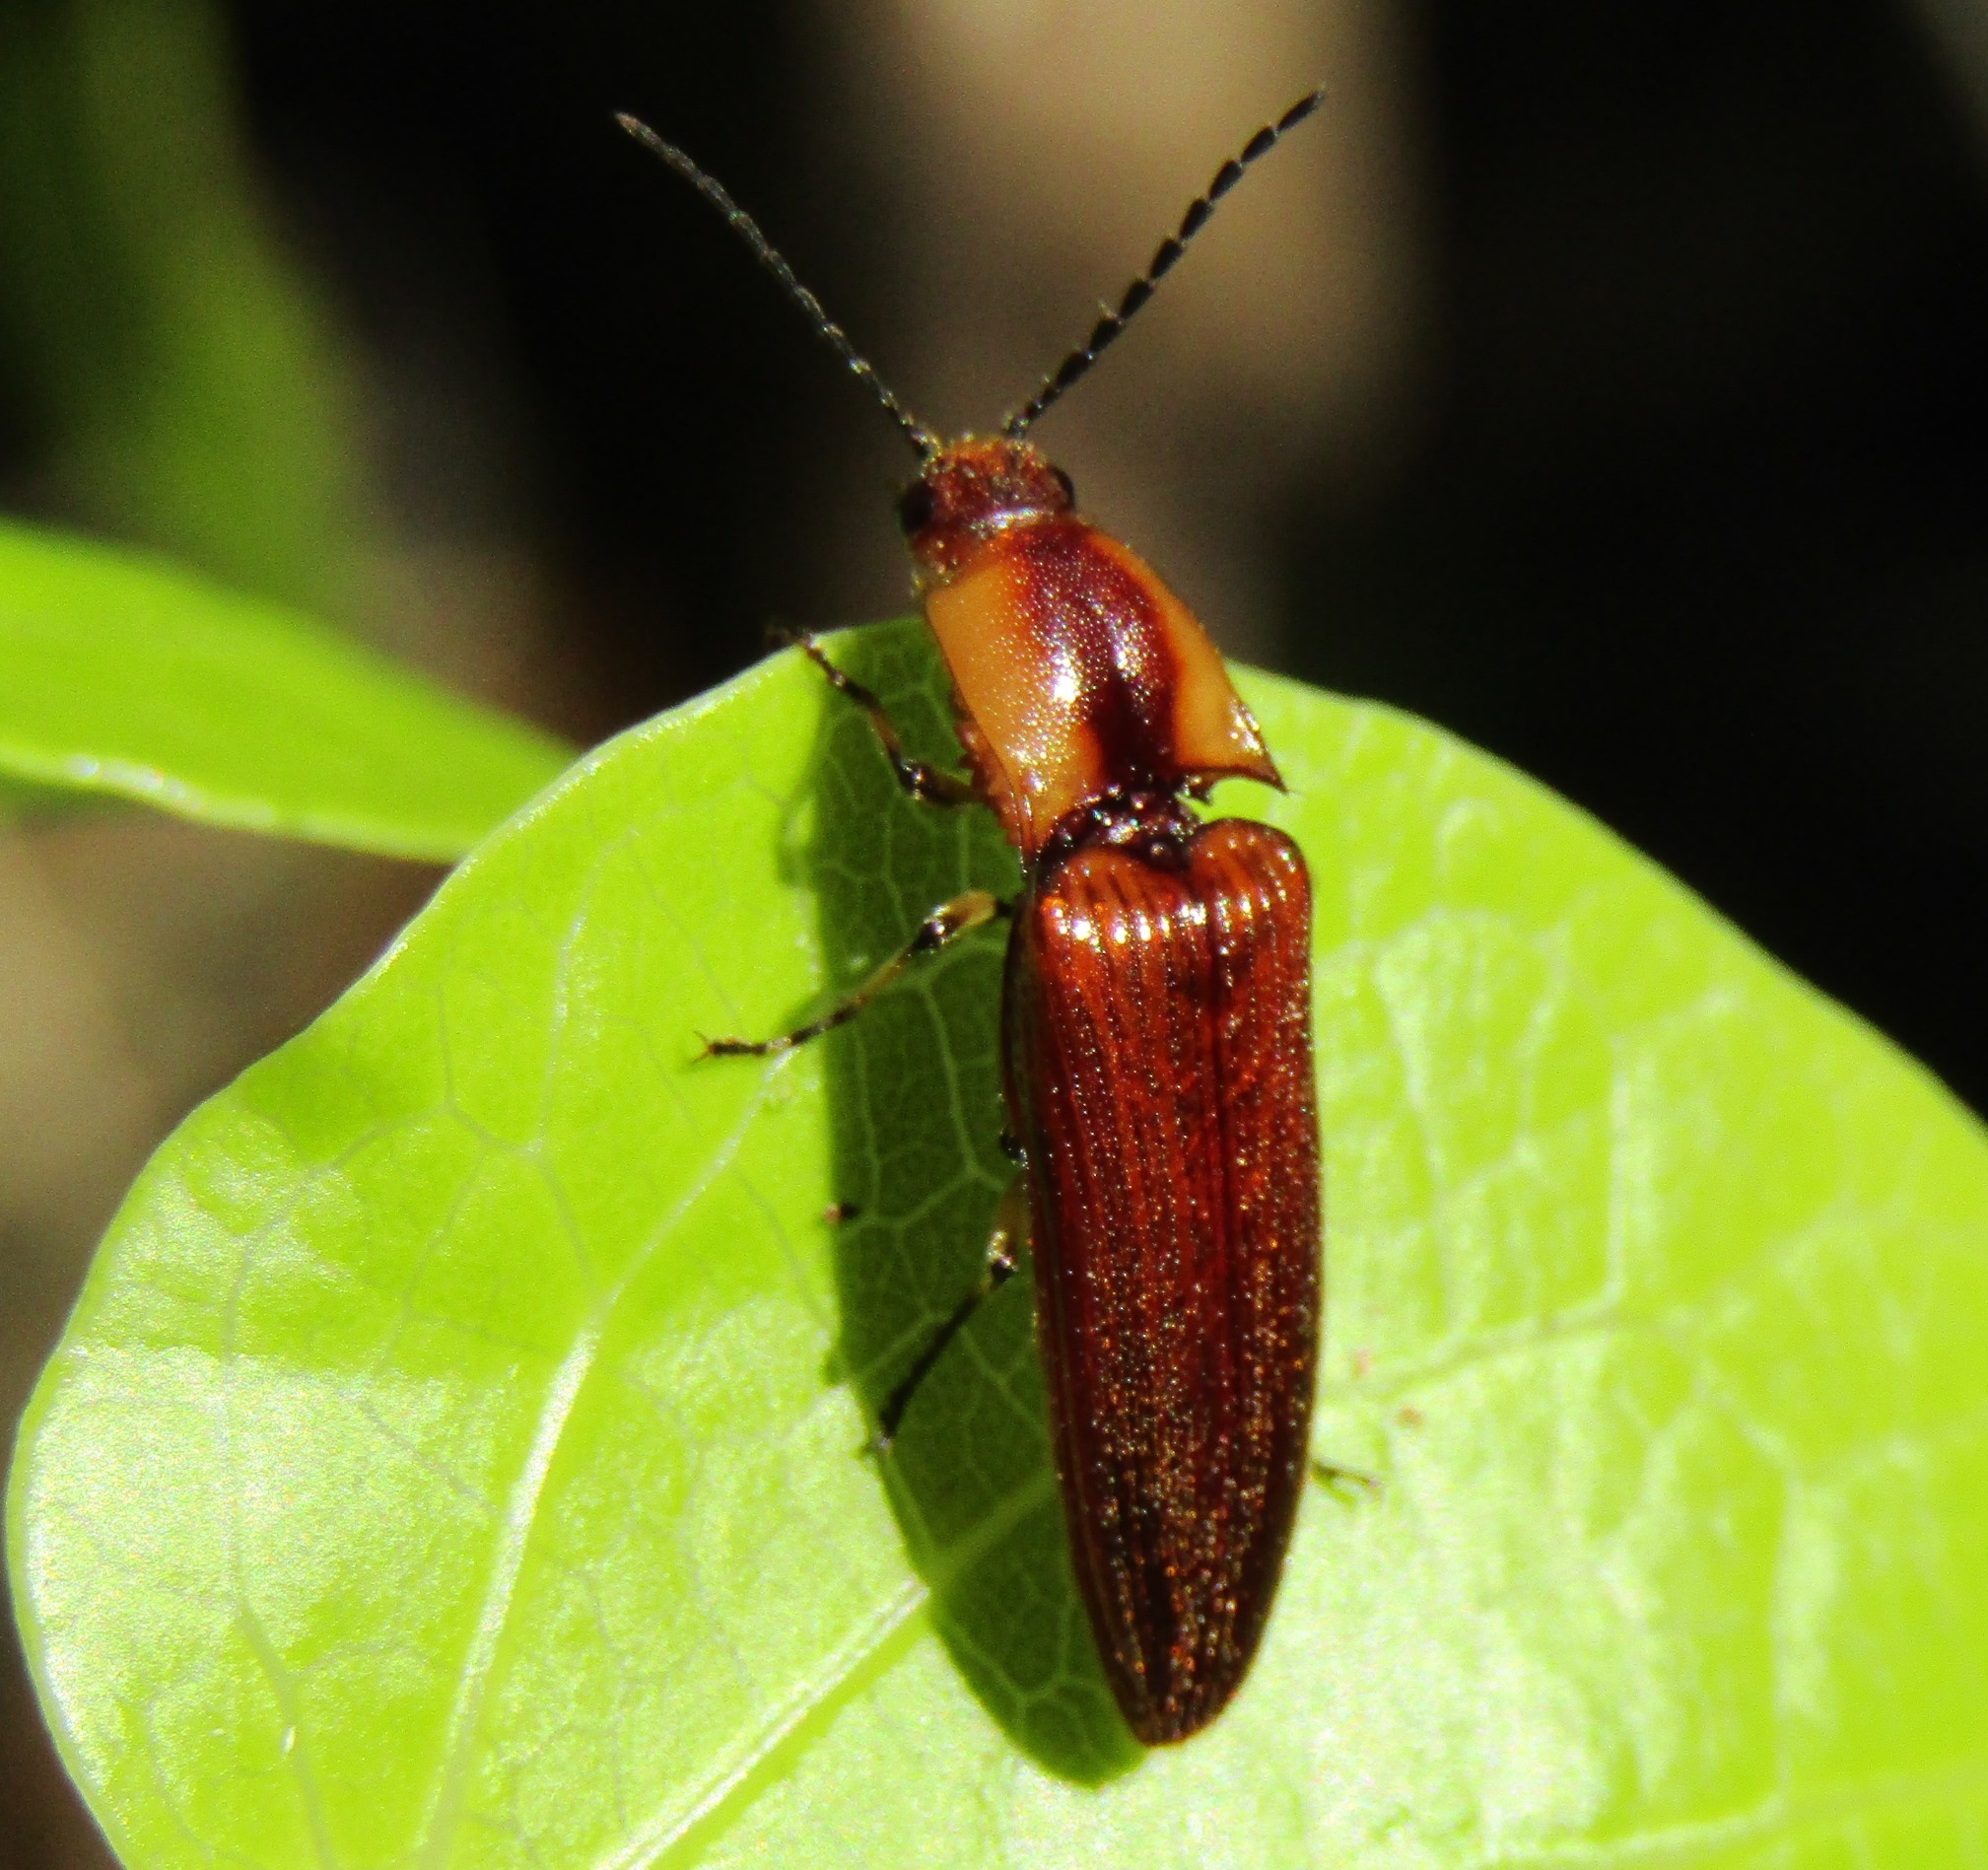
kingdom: Animalia
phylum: Arthropoda
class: Insecta
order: Coleoptera
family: Elateridae
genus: Sphaenelater
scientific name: Sphaenelater
